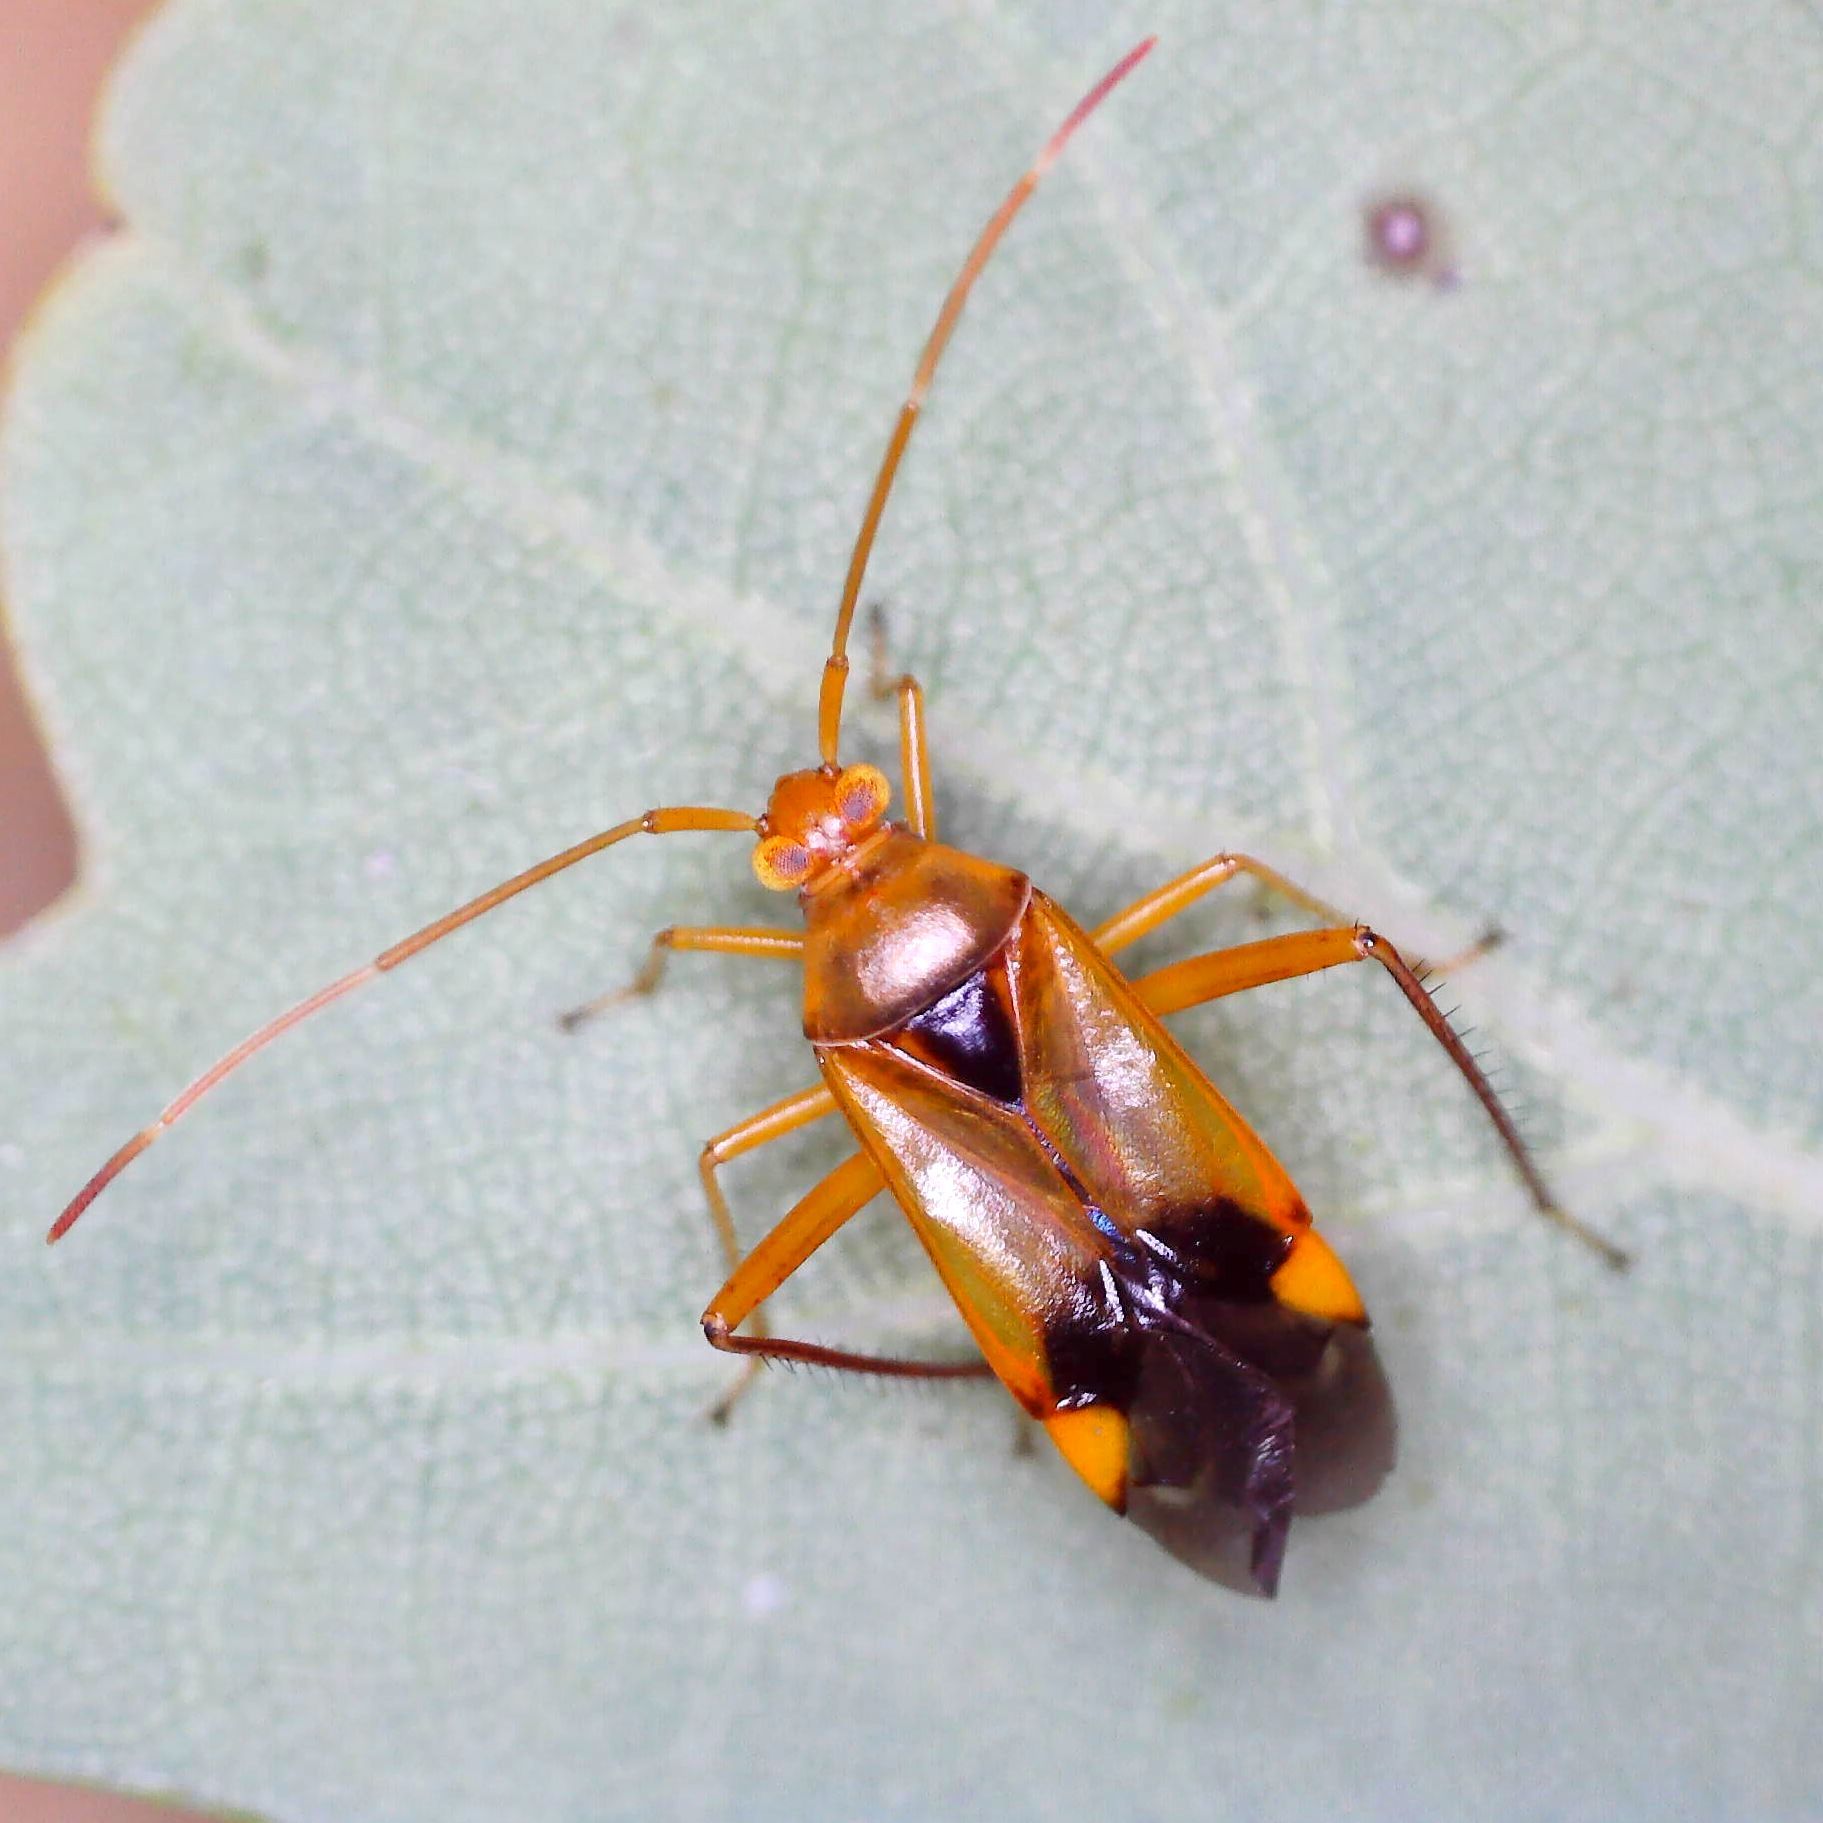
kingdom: Animalia
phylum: Arthropoda
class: Insecta
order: Hemiptera
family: Miridae
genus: Megacoelum
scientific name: Megacoelum infusum
